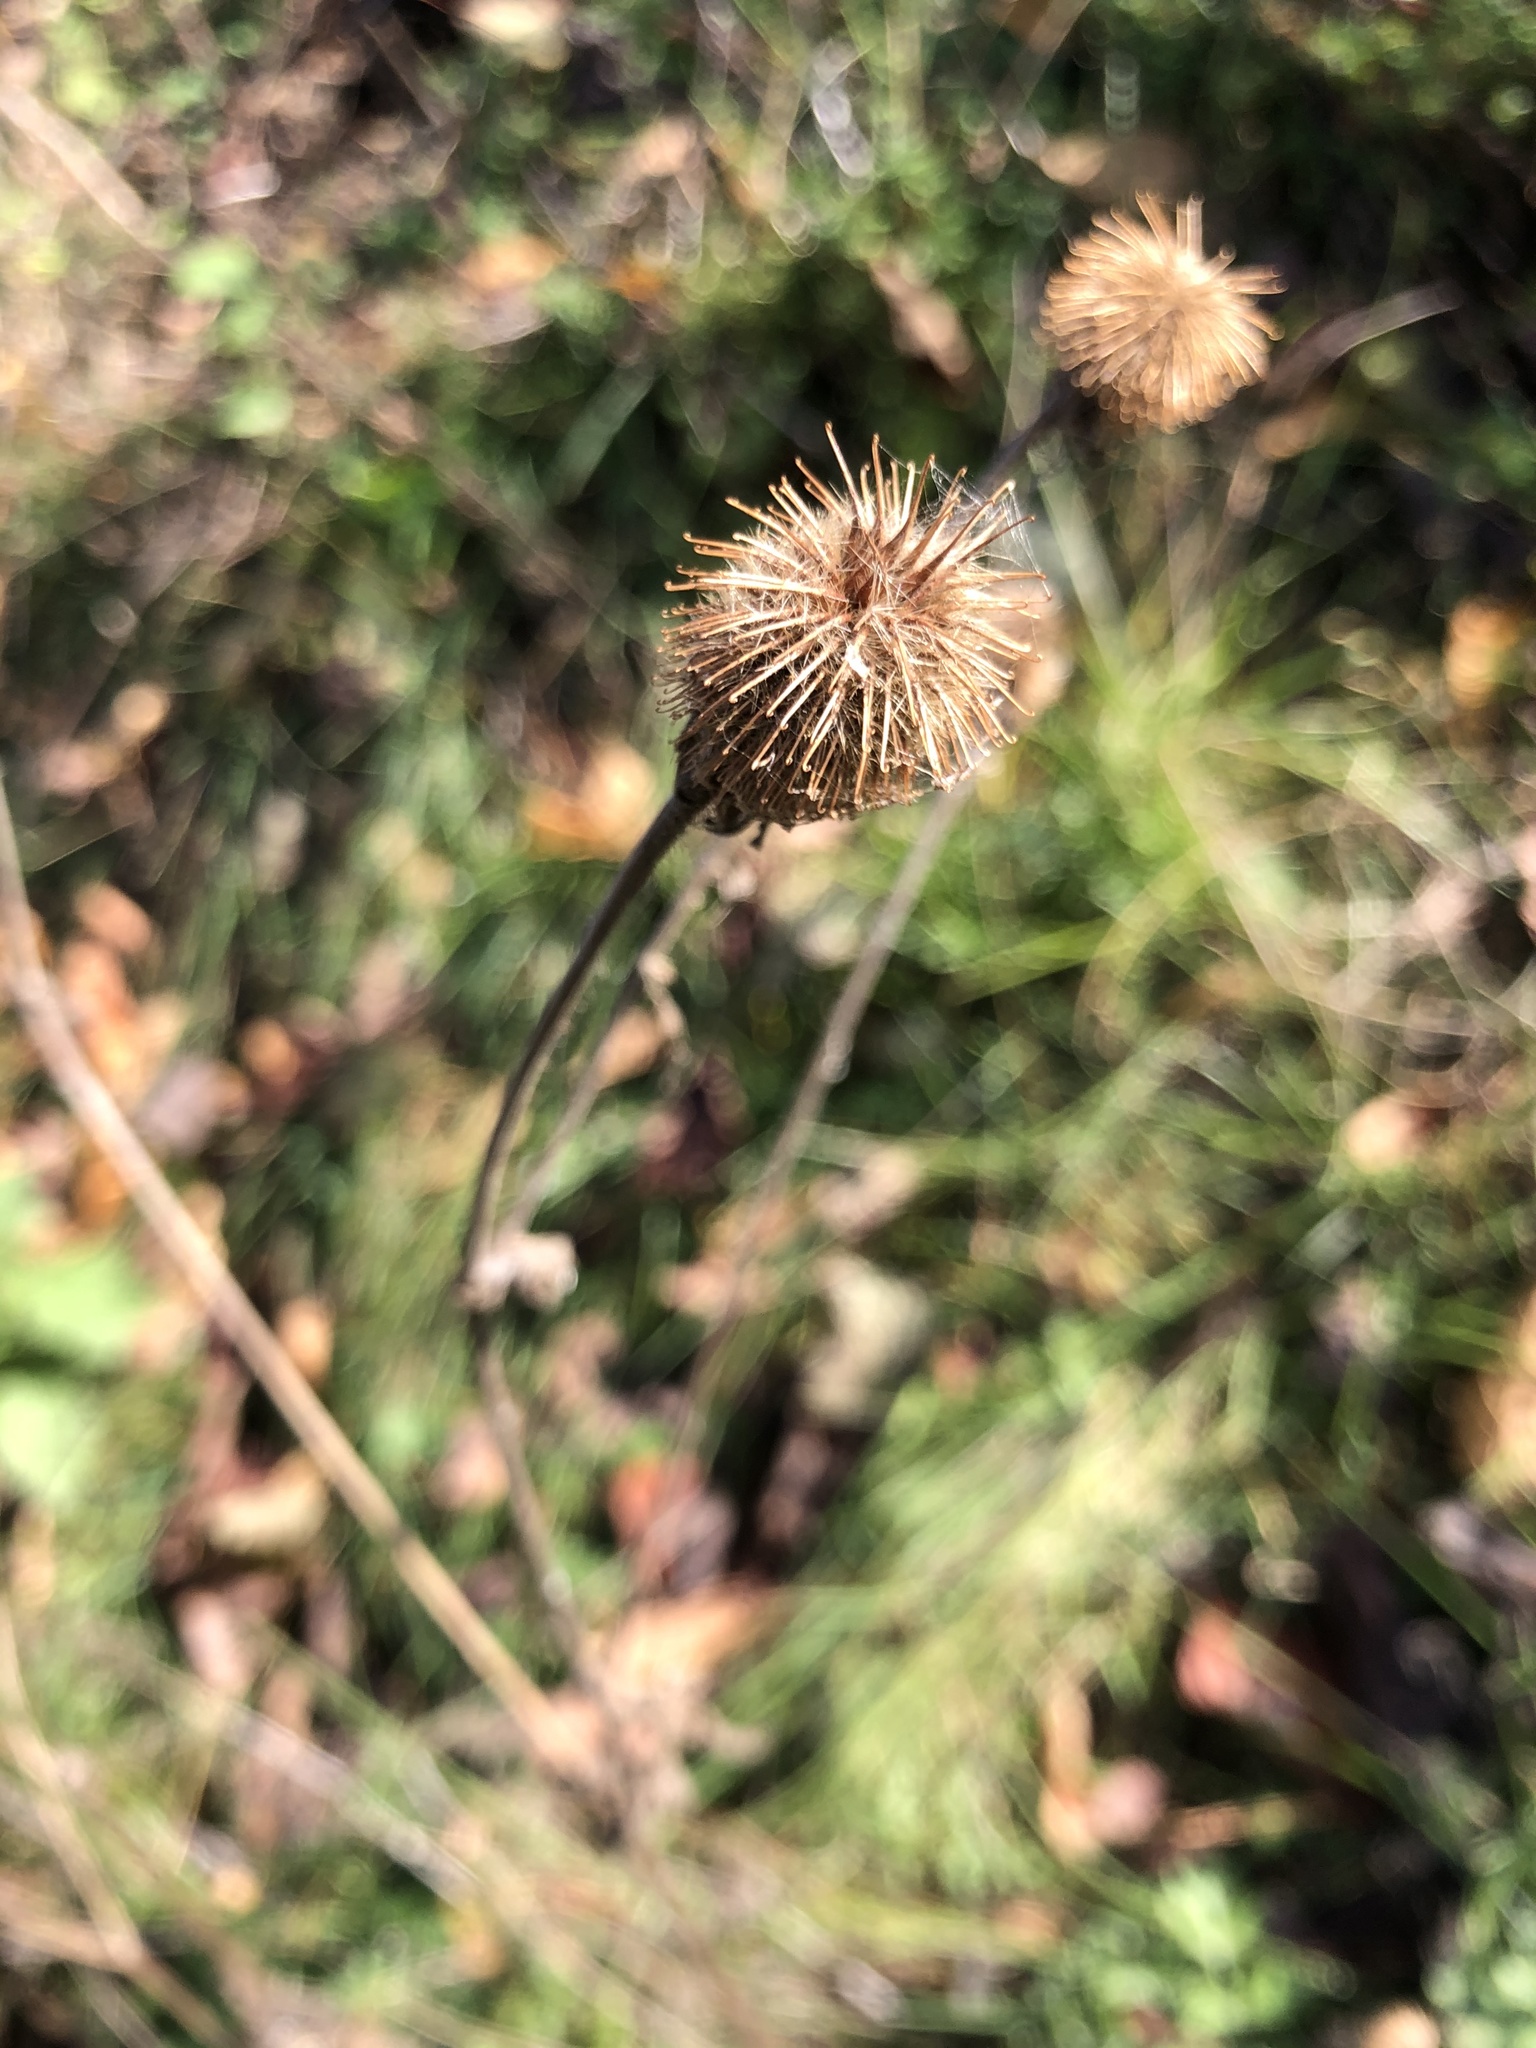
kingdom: Plantae
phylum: Tracheophyta
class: Magnoliopsida
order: Rosales
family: Rosaceae
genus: Geum
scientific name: Geum aleppicum
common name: Yellow avens
